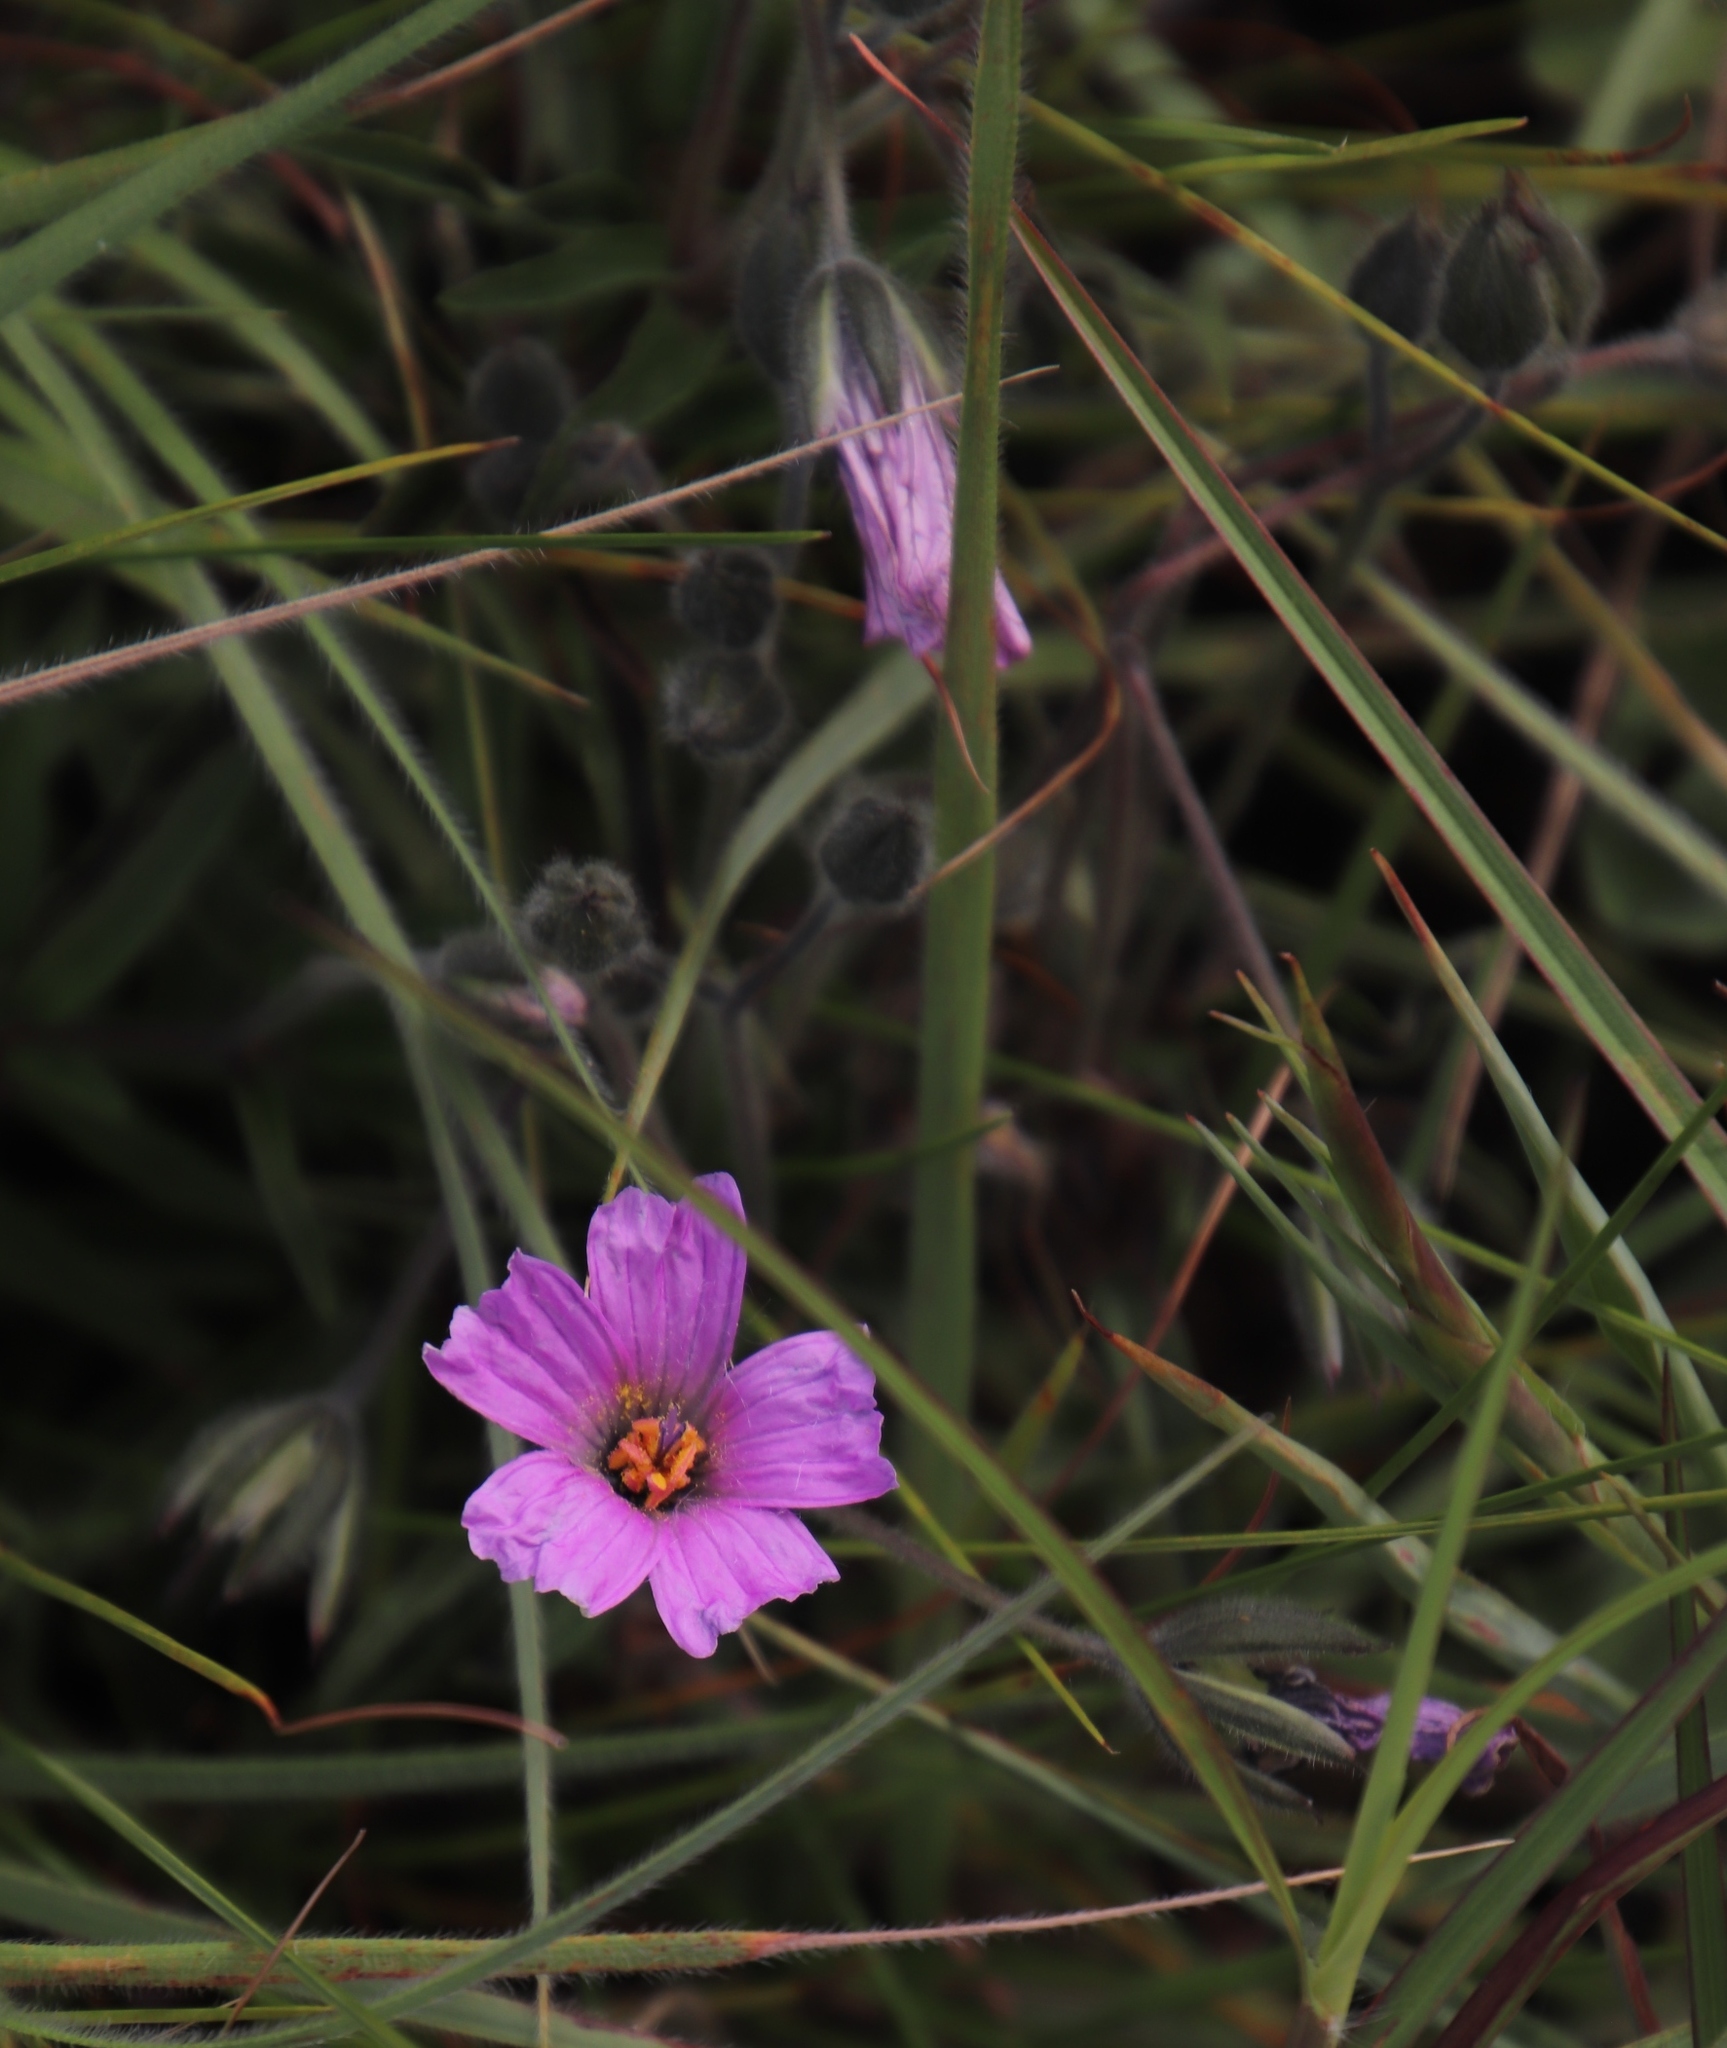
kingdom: Plantae
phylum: Tracheophyta
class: Magnoliopsida
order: Geraniales
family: Geraniaceae
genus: Monsonia
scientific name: Monsonia transvaalensis
